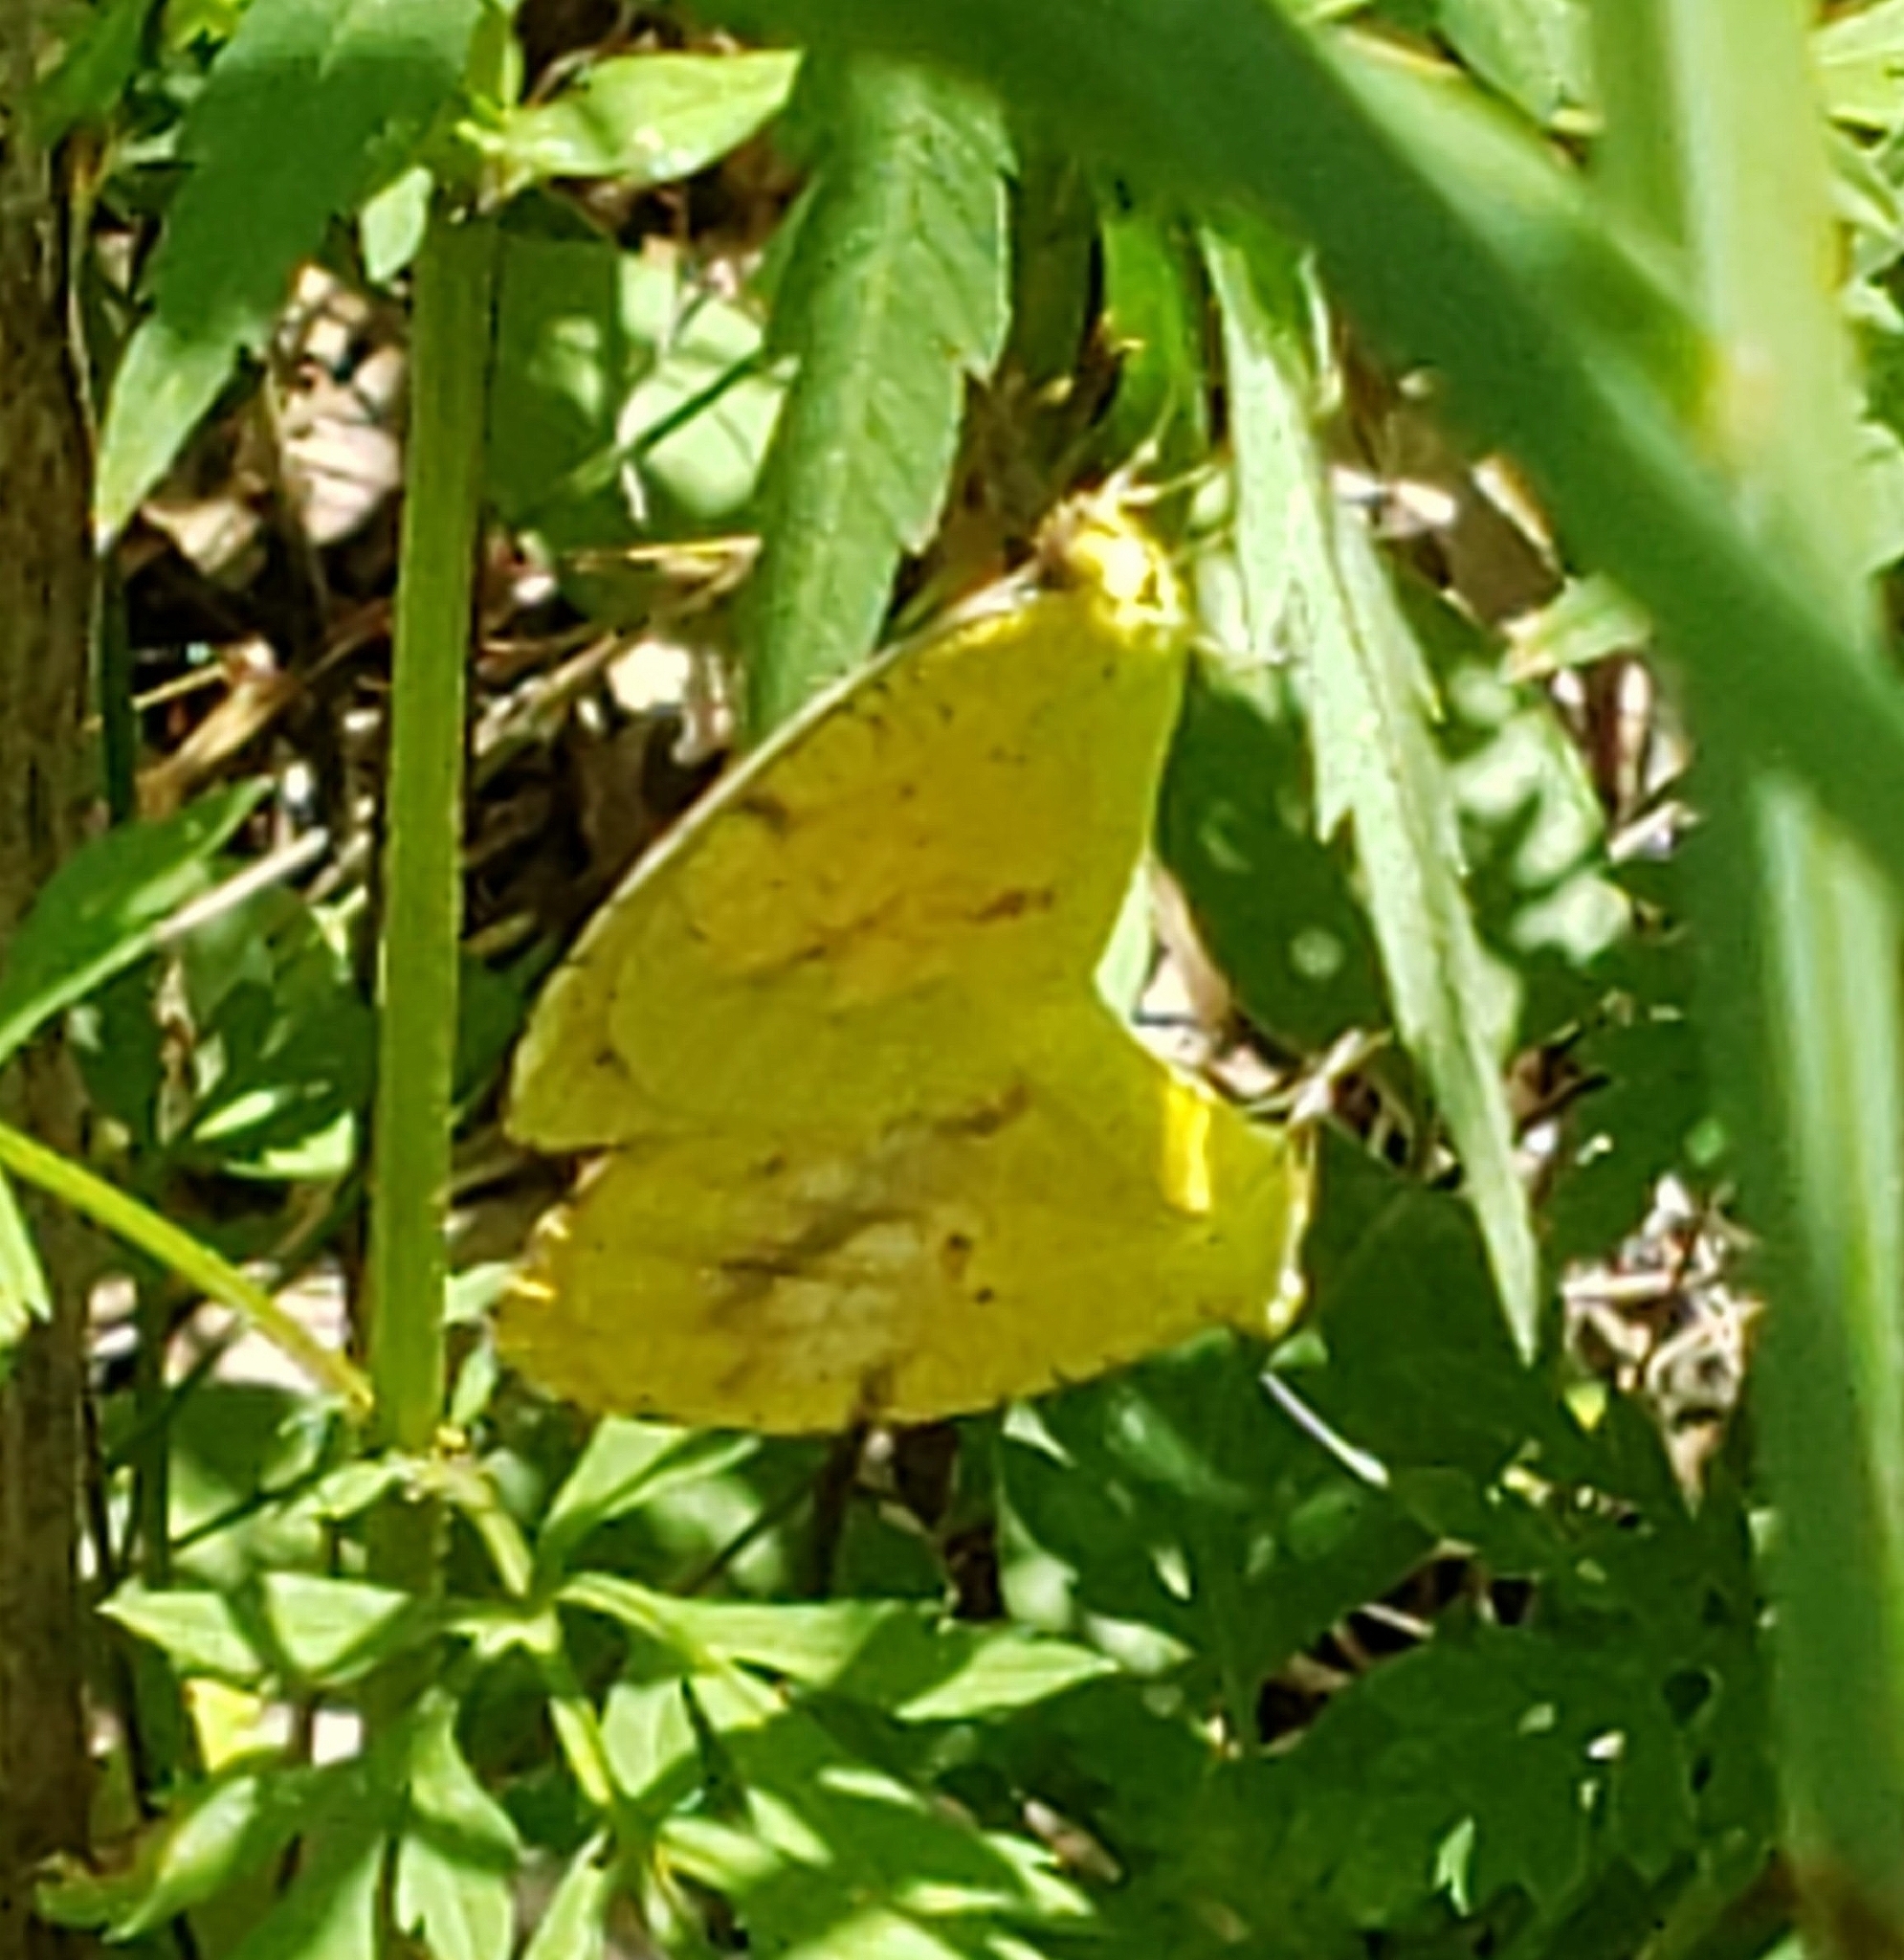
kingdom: Animalia
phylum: Arthropoda
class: Insecta
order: Lepidoptera
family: Pieridae
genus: Abaeis
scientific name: Abaeis nicippe
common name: Sleepy orange
